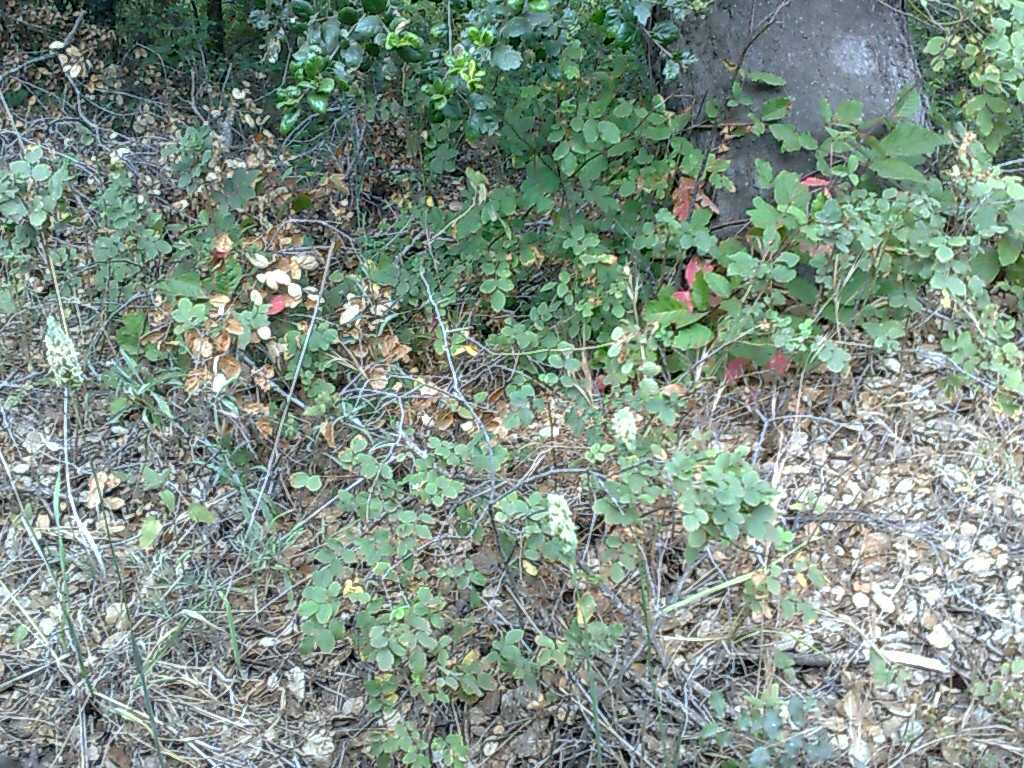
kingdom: Plantae
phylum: Tracheophyta
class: Magnoliopsida
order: Dipsacales
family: Caprifoliaceae
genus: Symphoricarpos
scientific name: Symphoricarpos mollis
